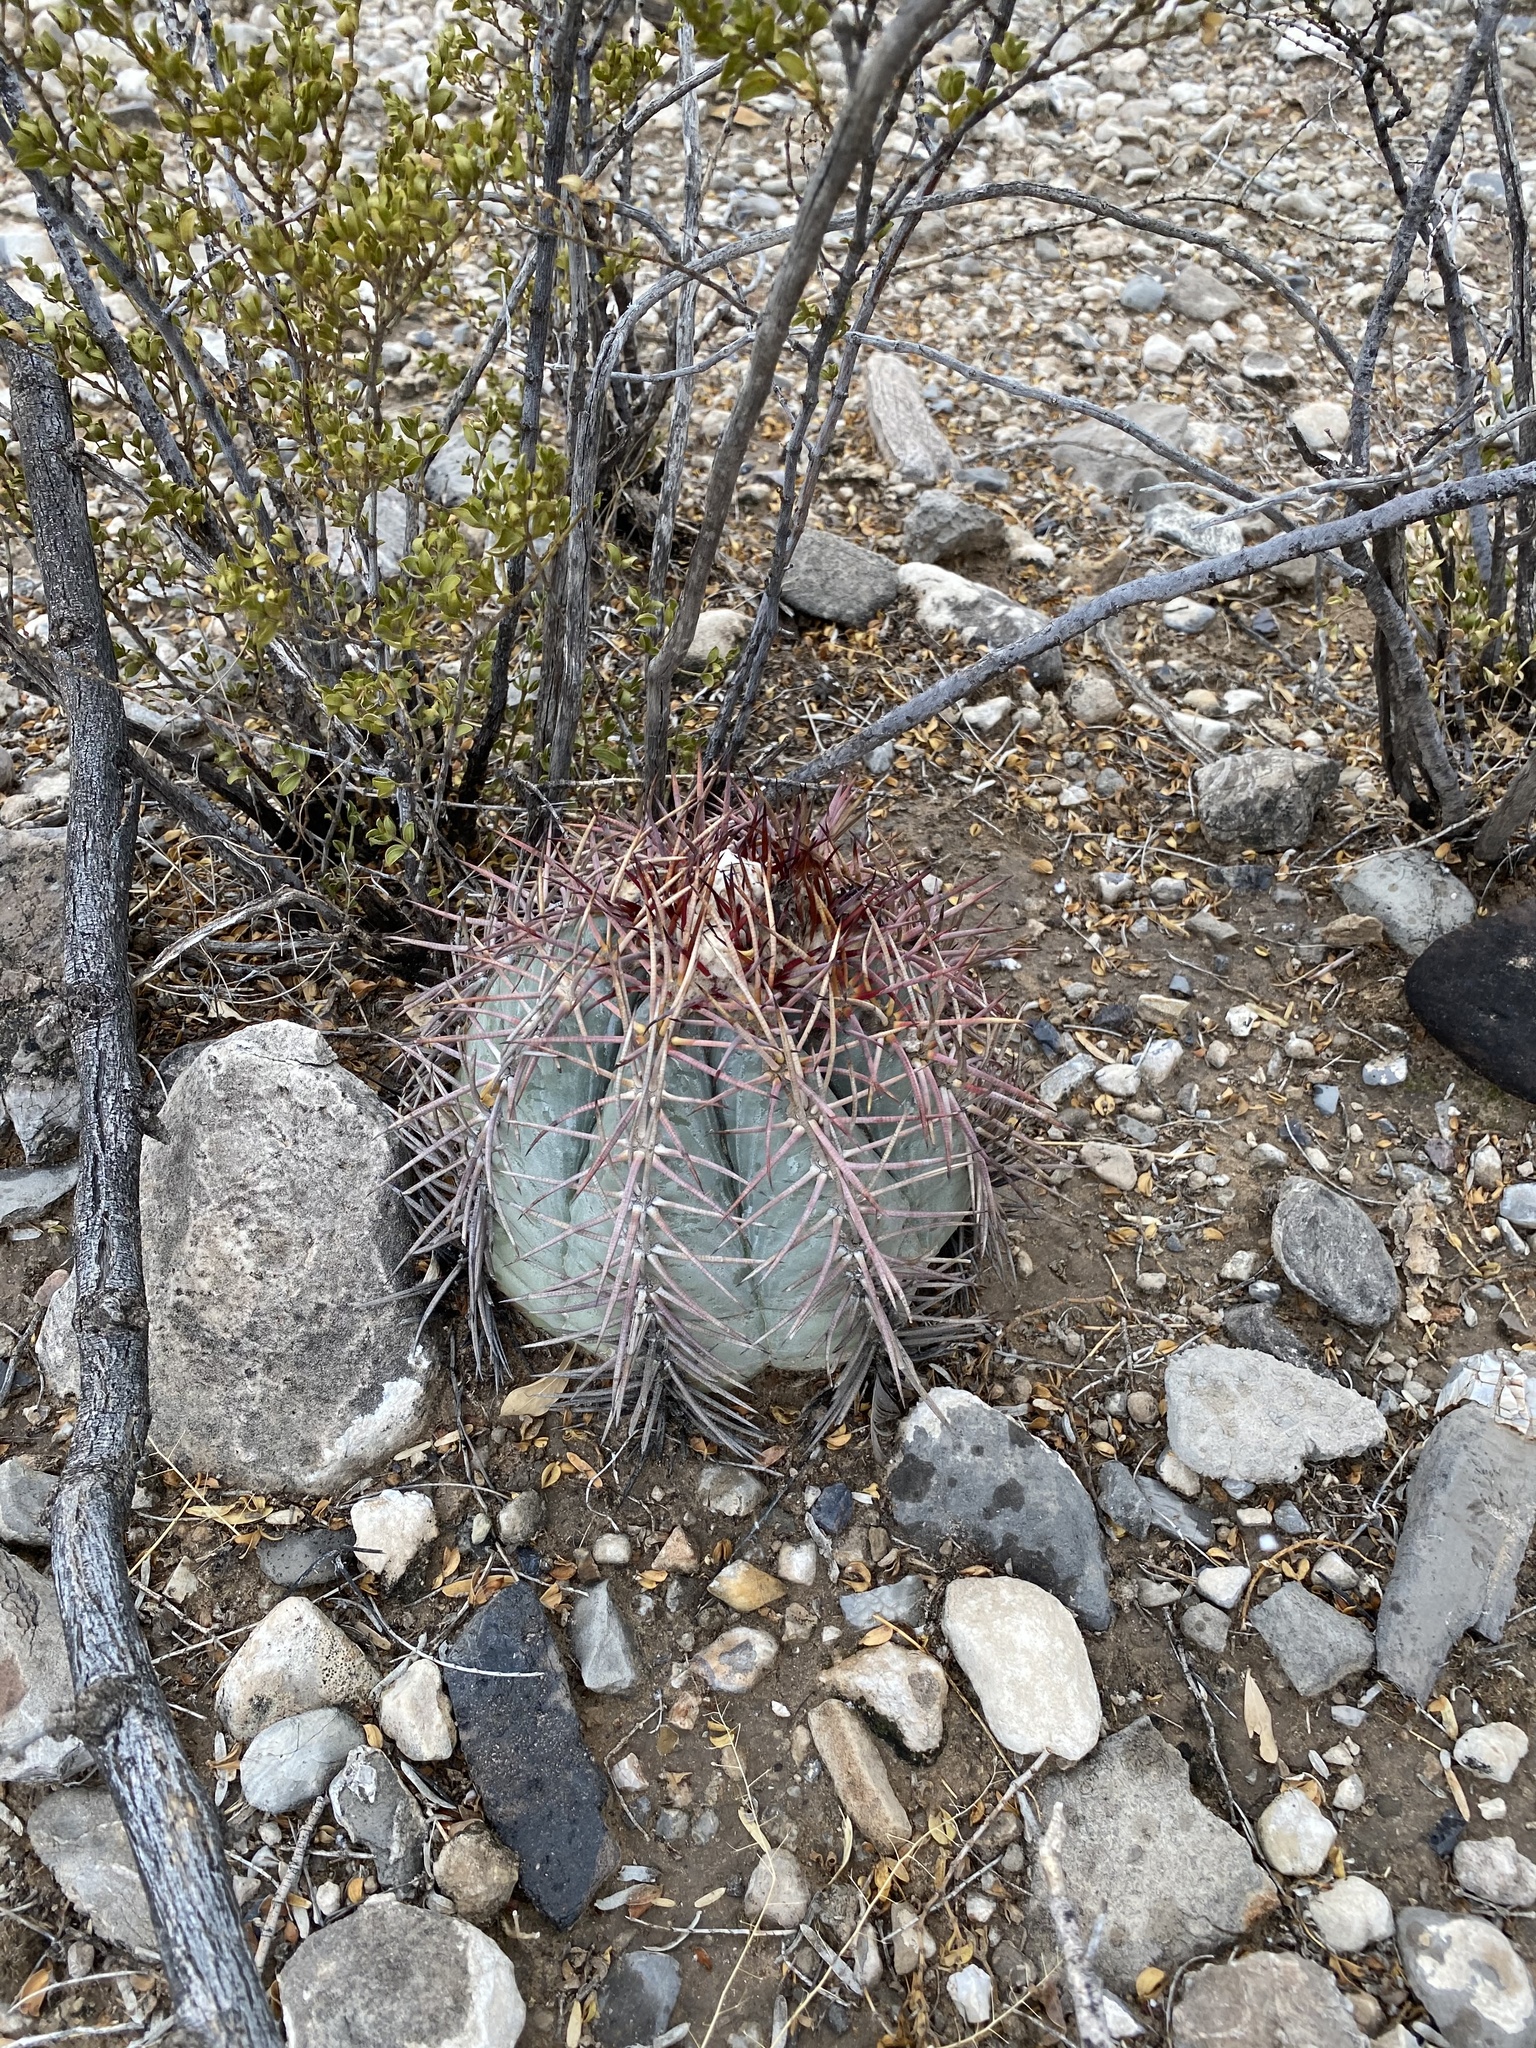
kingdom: Plantae
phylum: Tracheophyta
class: Magnoliopsida
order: Caryophyllales
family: Cactaceae
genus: Echinocactus
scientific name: Echinocactus horizonthalonius
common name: Devilshead
